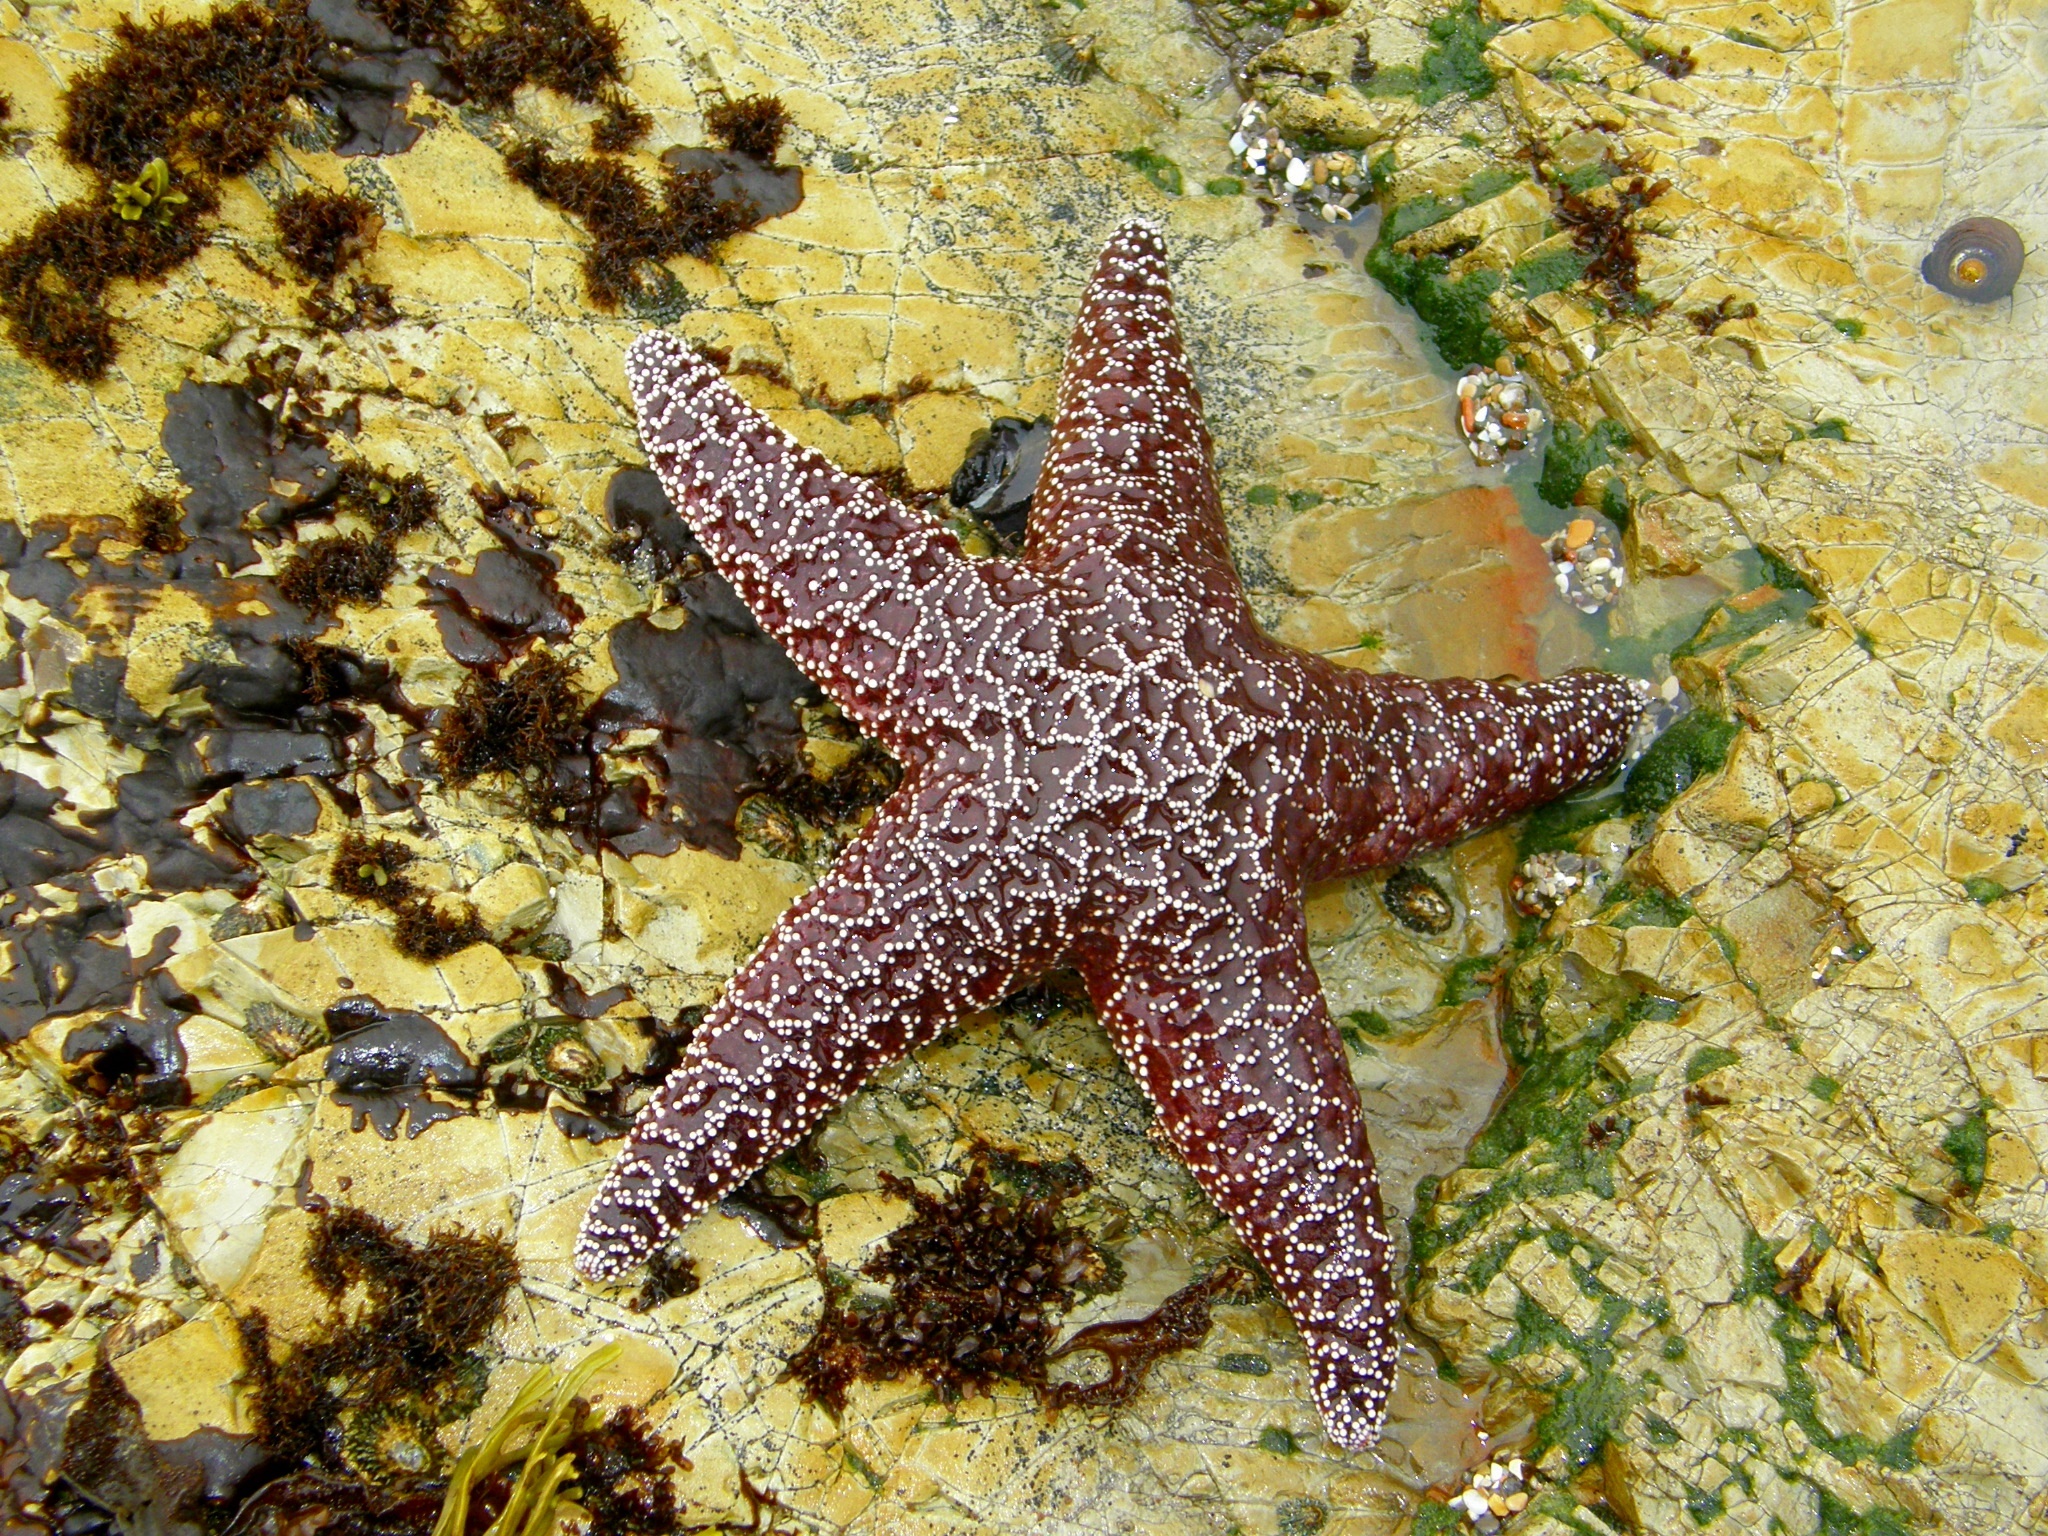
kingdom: Animalia
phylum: Echinodermata
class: Asteroidea
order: Forcipulatida
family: Asteriidae
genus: Pisaster
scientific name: Pisaster ochraceus
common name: Ochre stars
